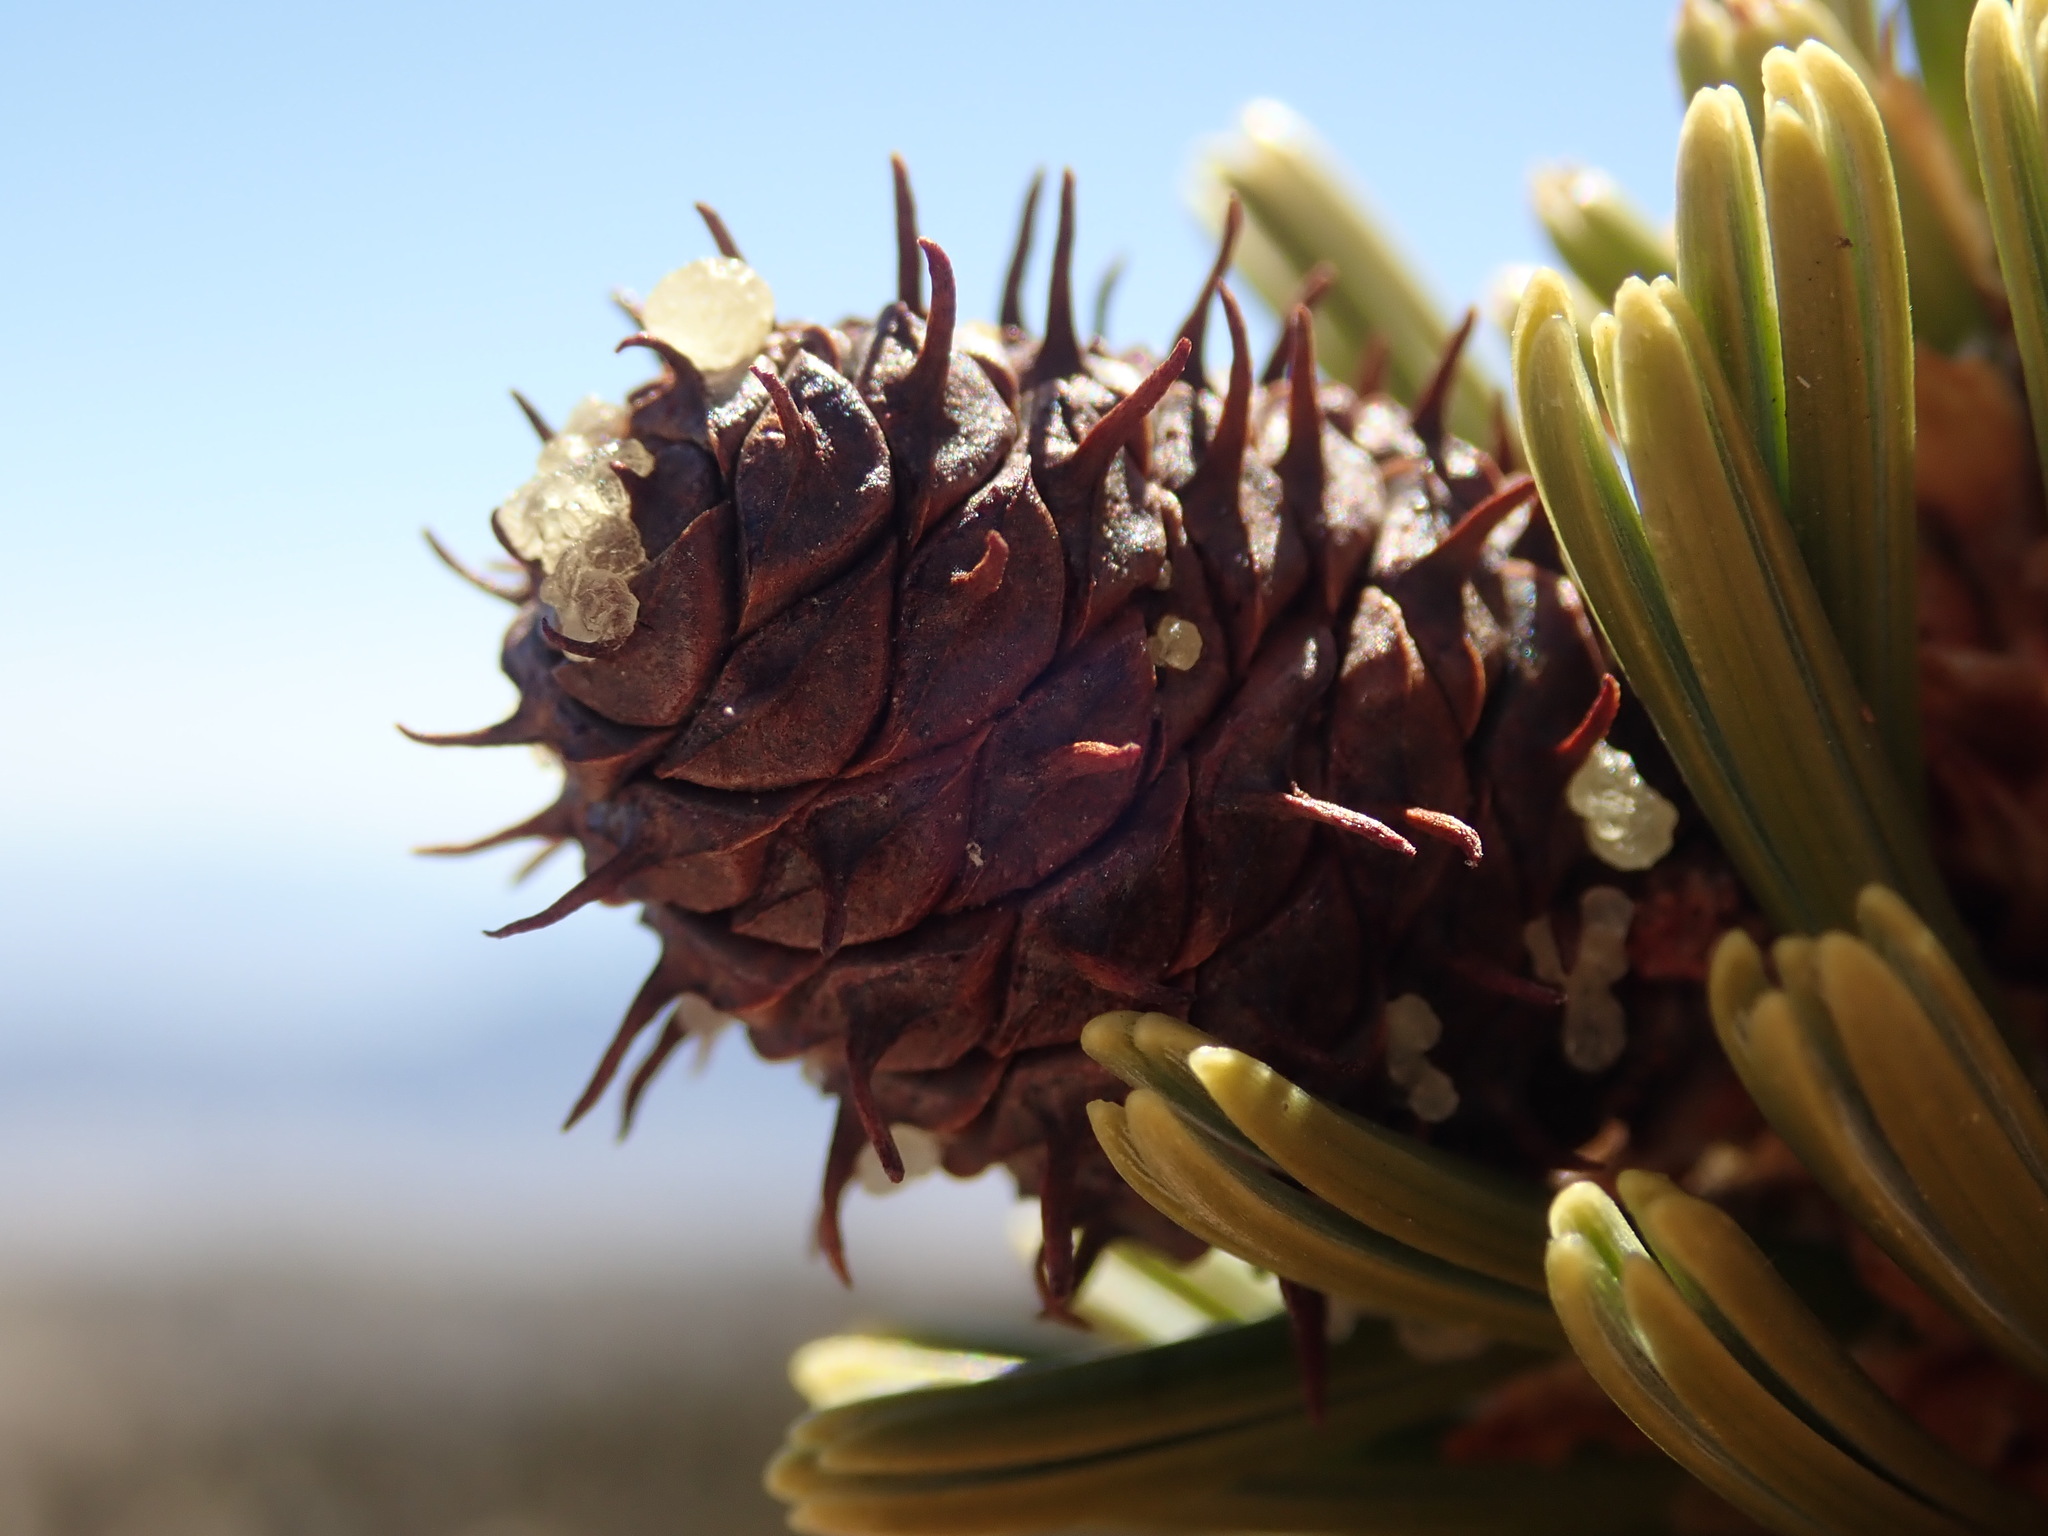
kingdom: Plantae
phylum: Tracheophyta
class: Pinopsida
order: Pinales
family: Pinaceae
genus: Pinus
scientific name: Pinus longaeva
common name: Intermountain bristlecone pine
